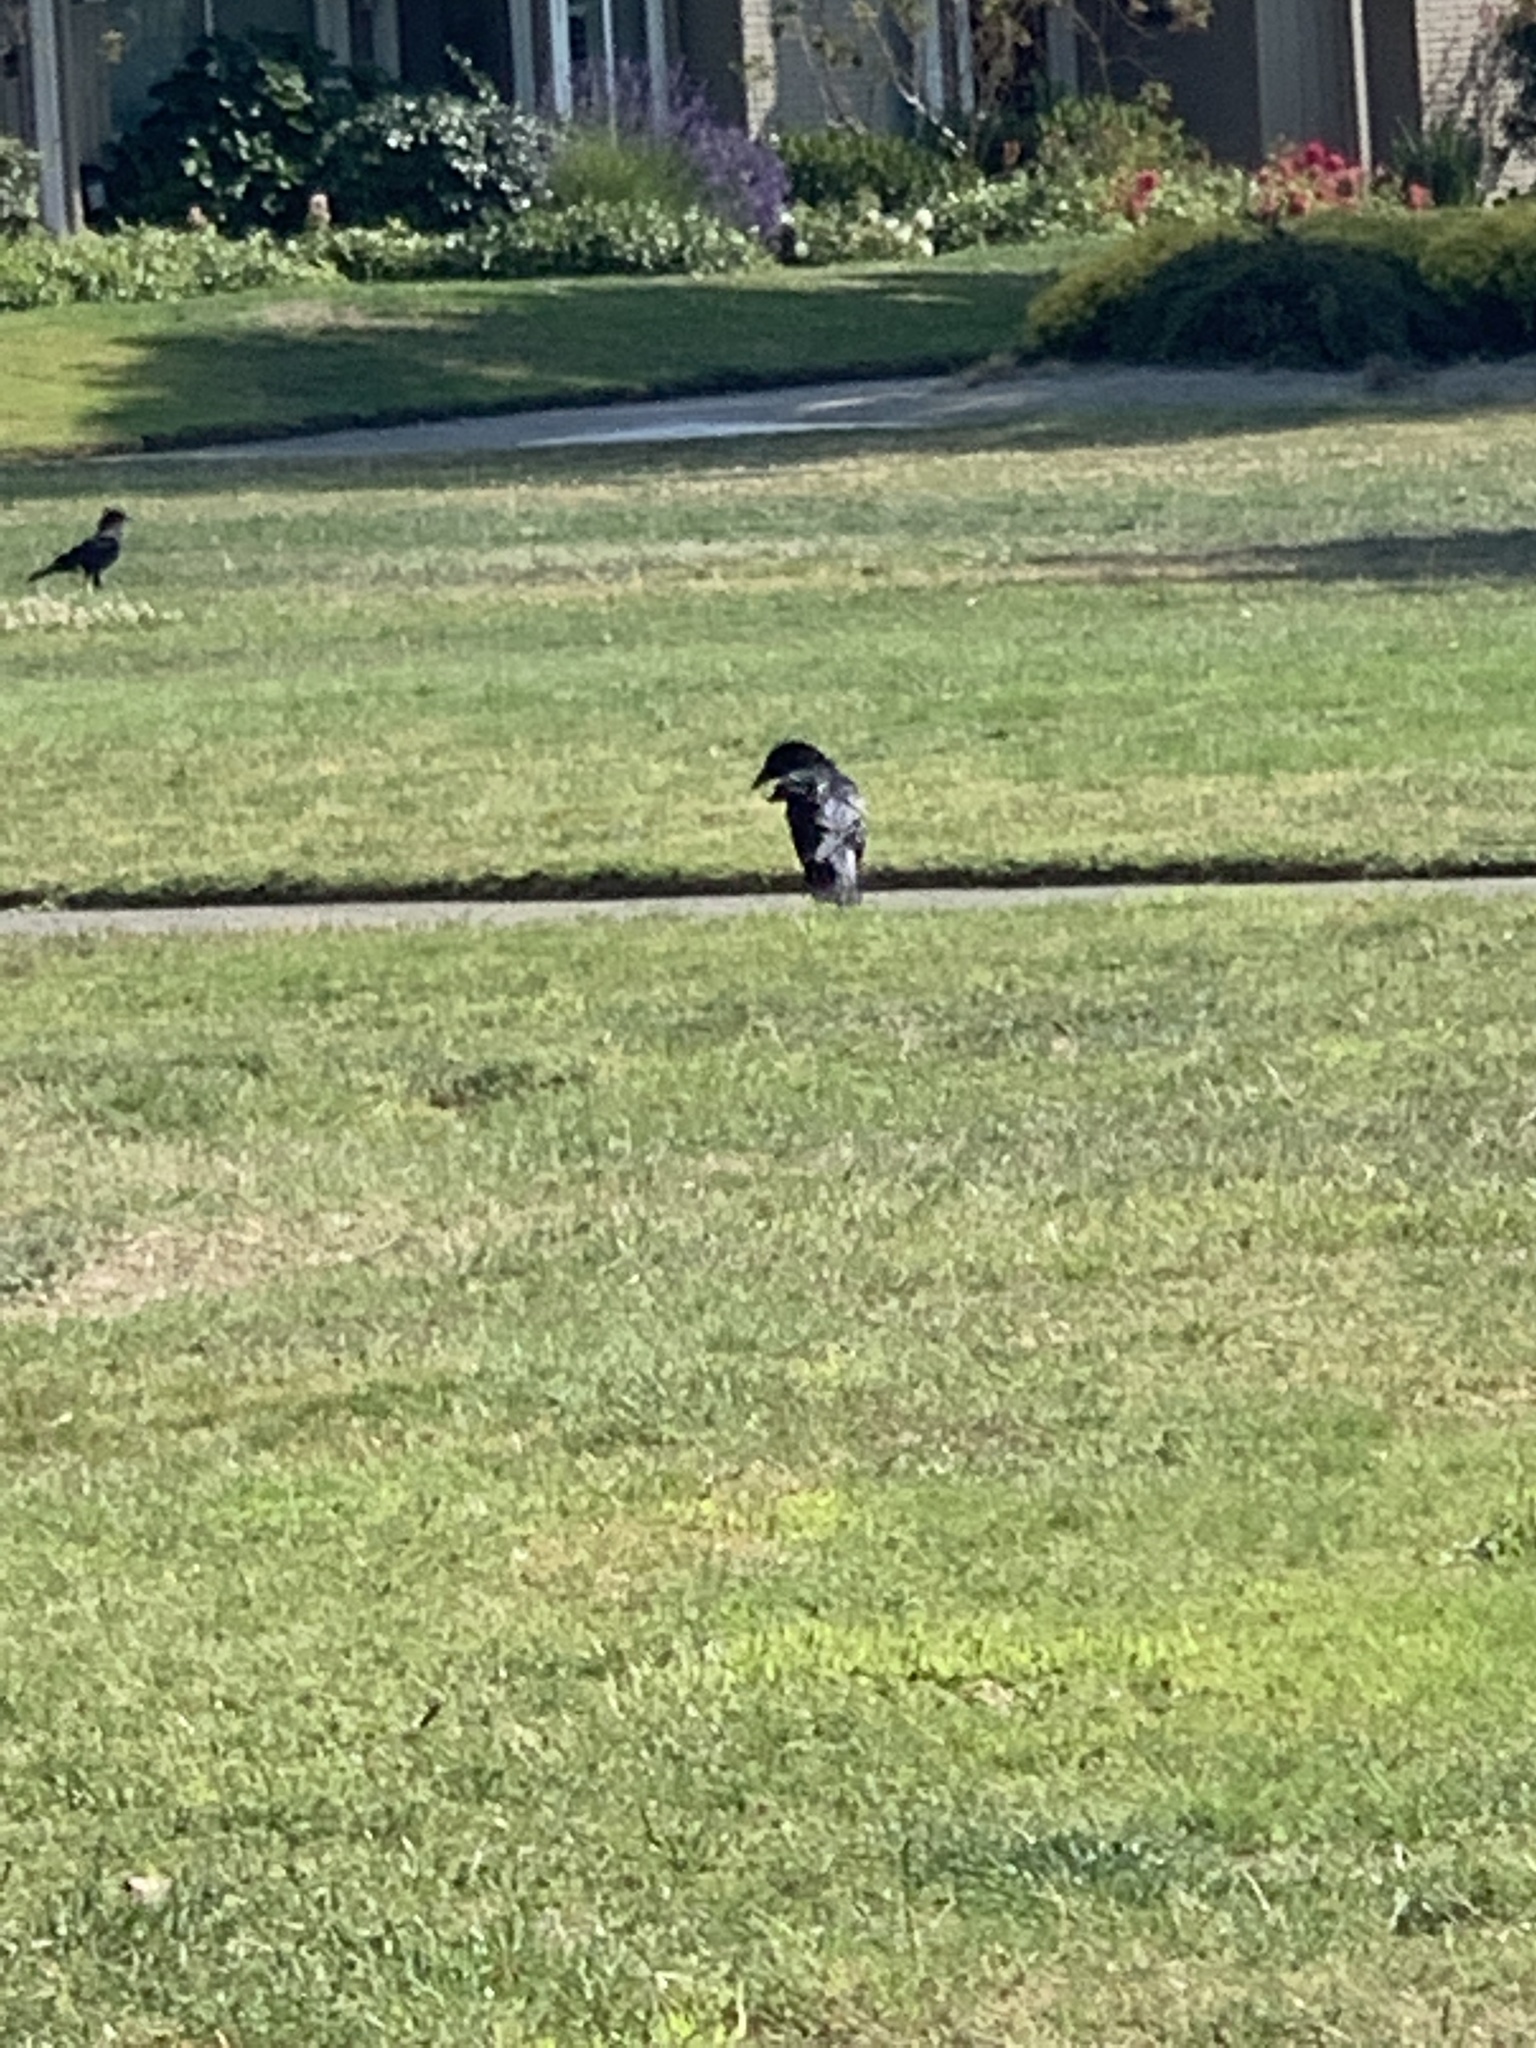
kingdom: Animalia
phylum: Chordata
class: Aves
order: Passeriformes
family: Corvidae
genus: Corvus
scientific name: Corvus brachyrhynchos
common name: American crow
